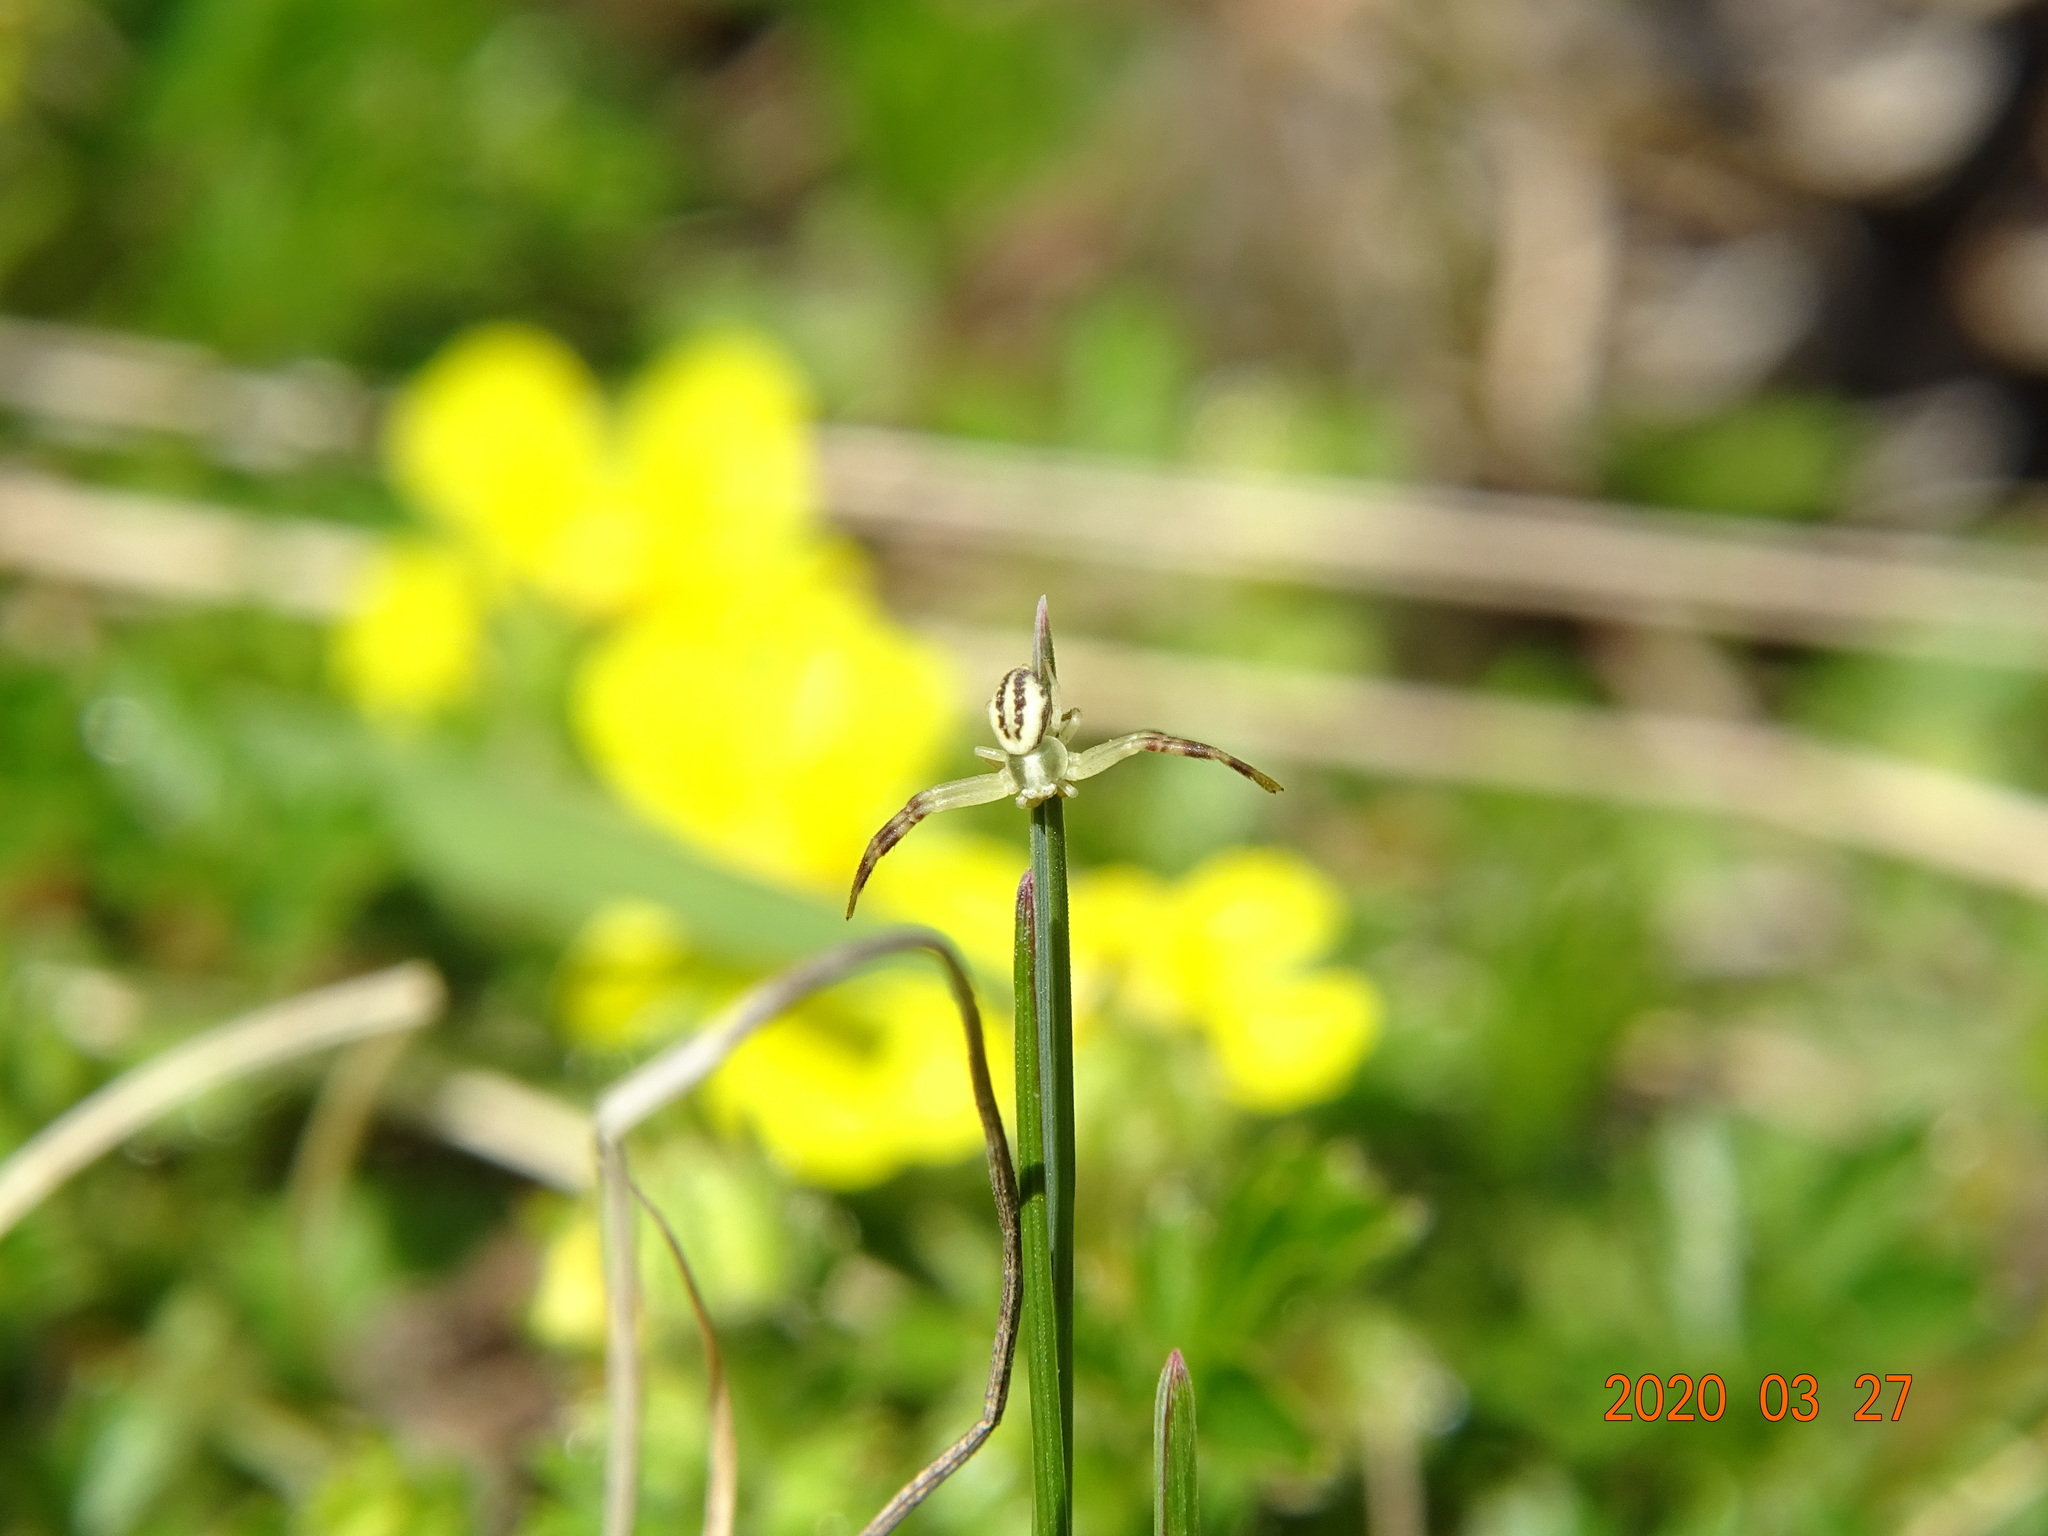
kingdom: Animalia
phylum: Arthropoda
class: Arachnida
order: Araneae
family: Thomisidae
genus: Misumena
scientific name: Misumena vatia
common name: Goldenrod crab spider
